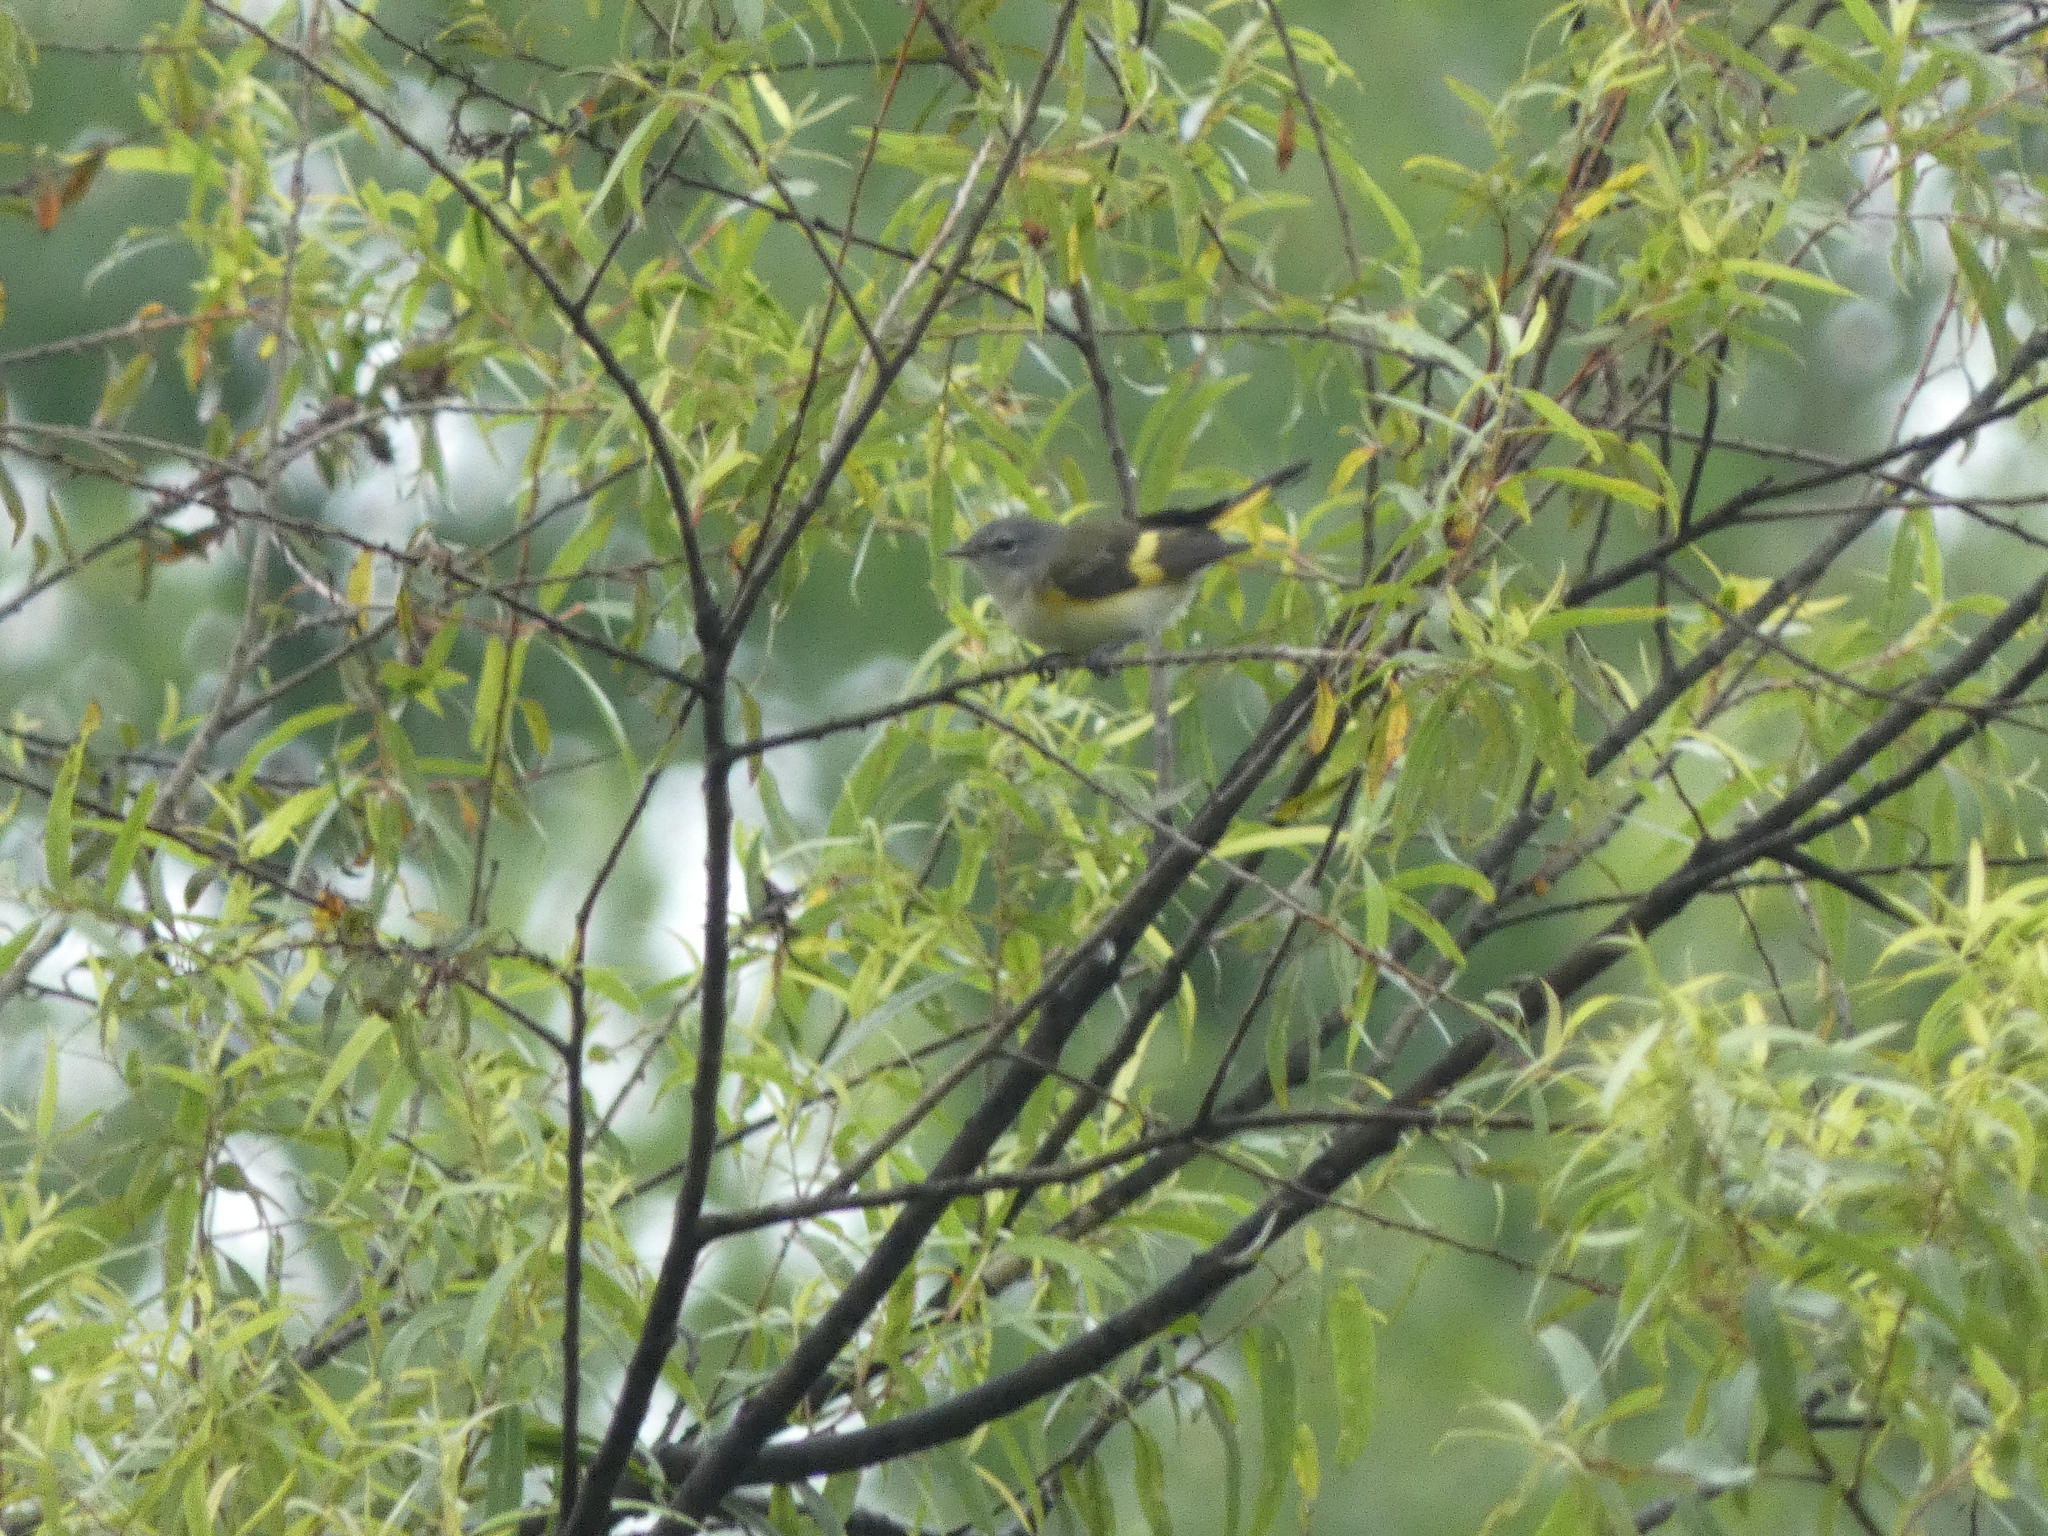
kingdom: Animalia
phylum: Chordata
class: Aves
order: Passeriformes
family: Parulidae
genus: Setophaga
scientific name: Setophaga ruticilla
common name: American redstart
